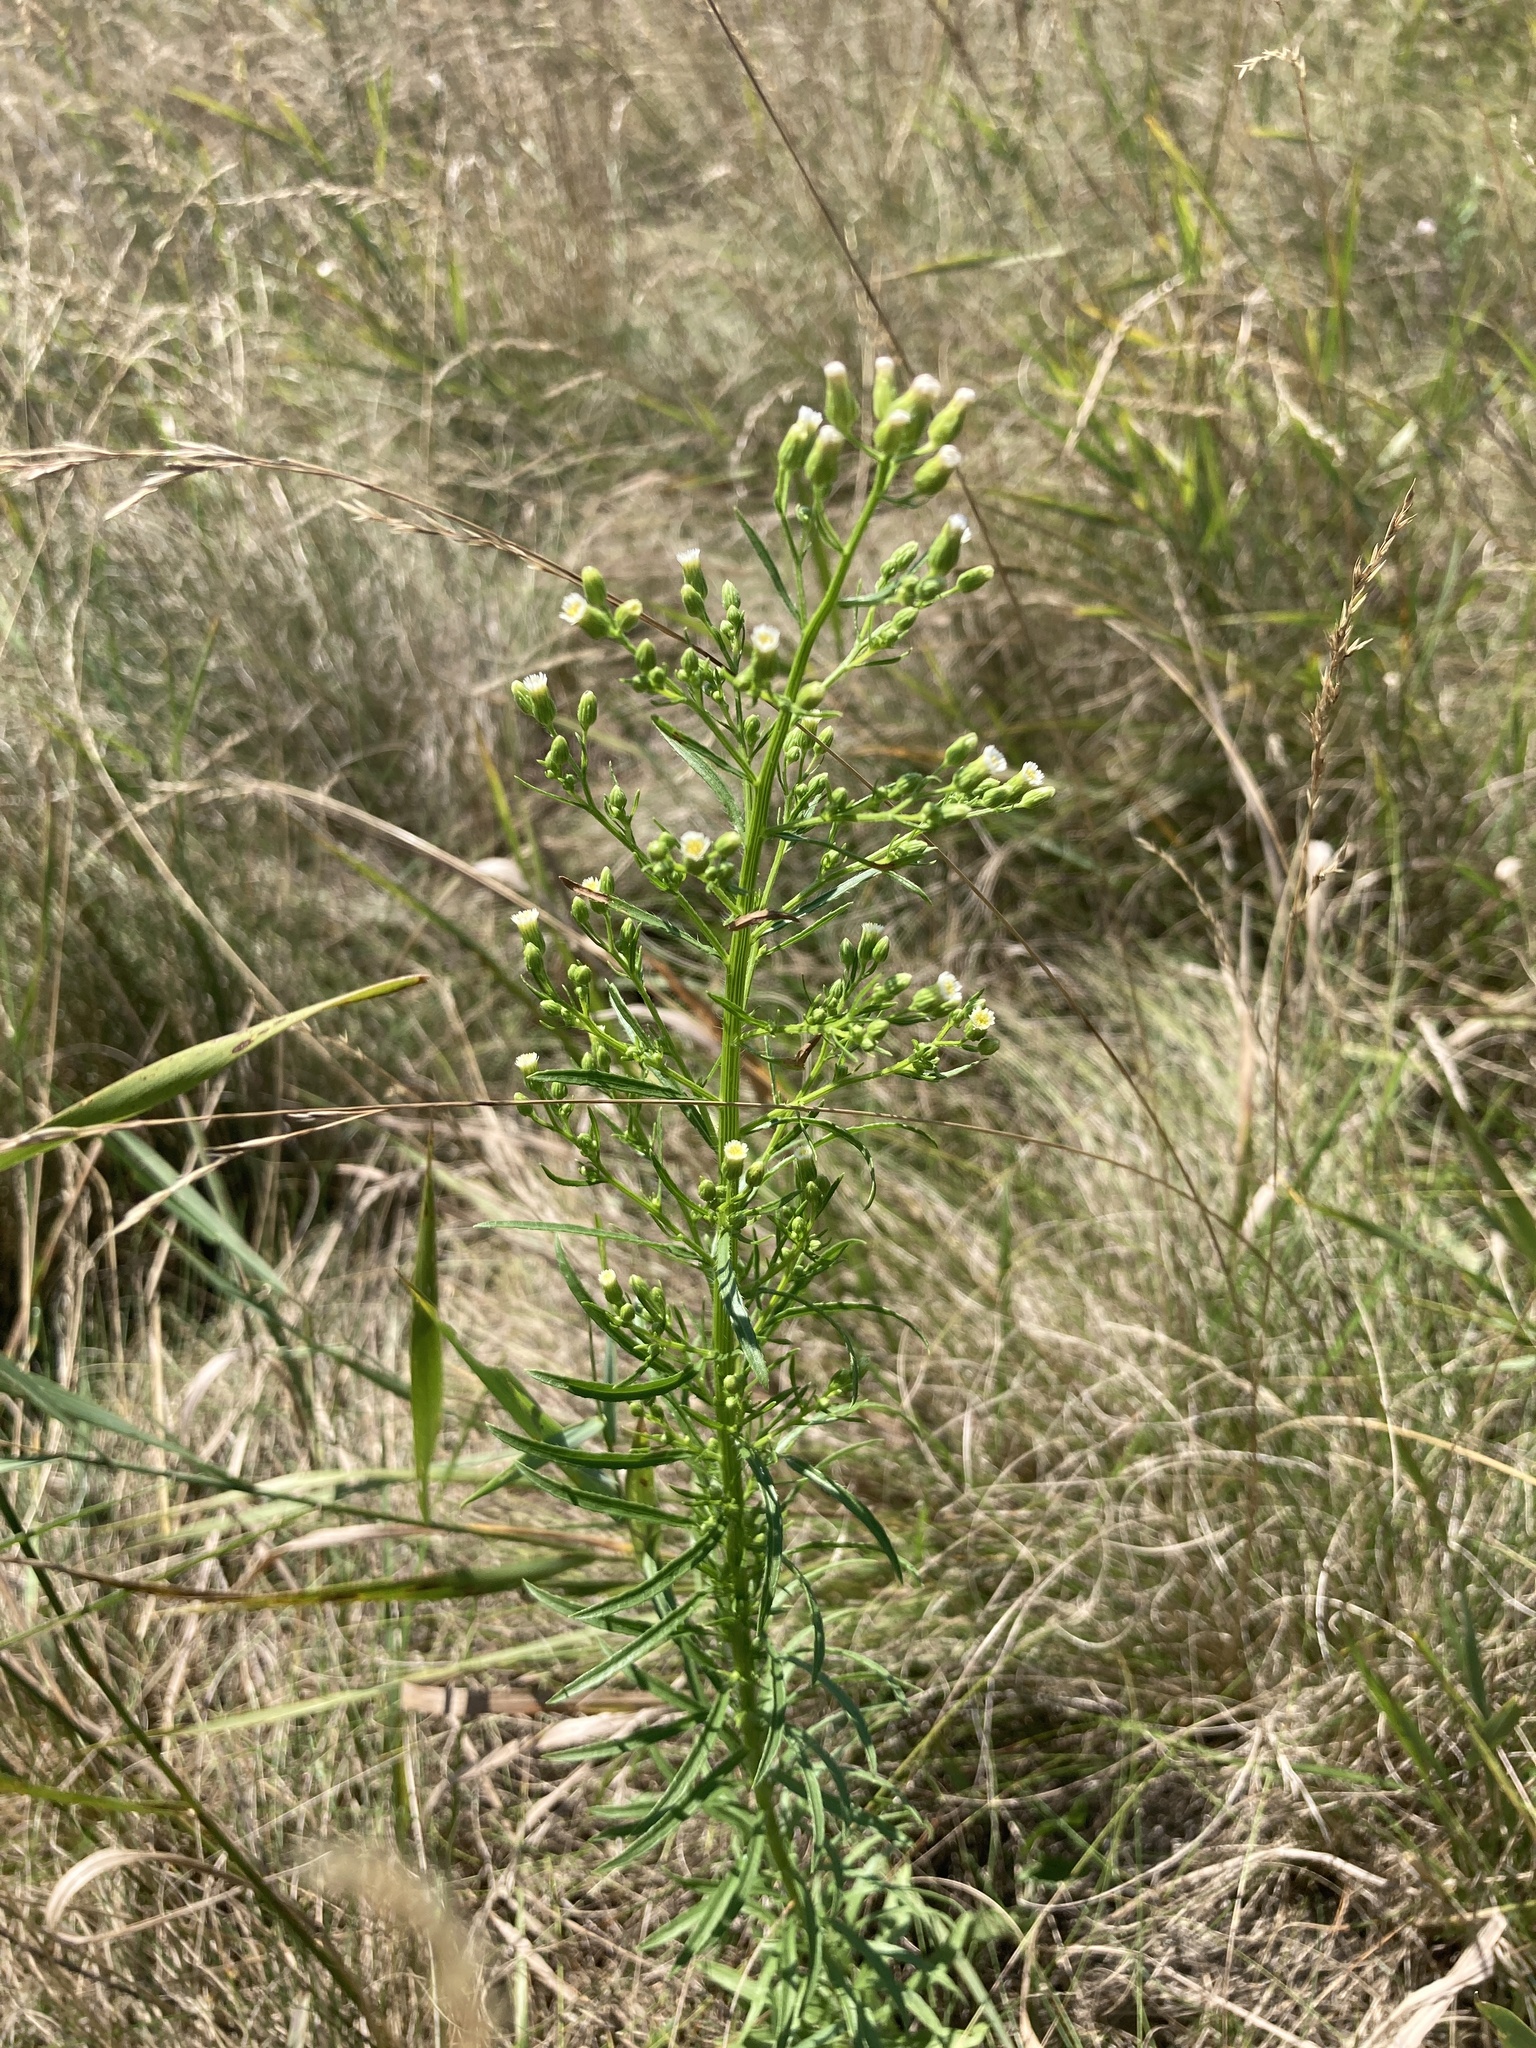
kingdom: Plantae
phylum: Tracheophyta
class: Magnoliopsida
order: Asterales
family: Asteraceae
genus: Erigeron
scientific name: Erigeron canadensis
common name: Canadian fleabane
